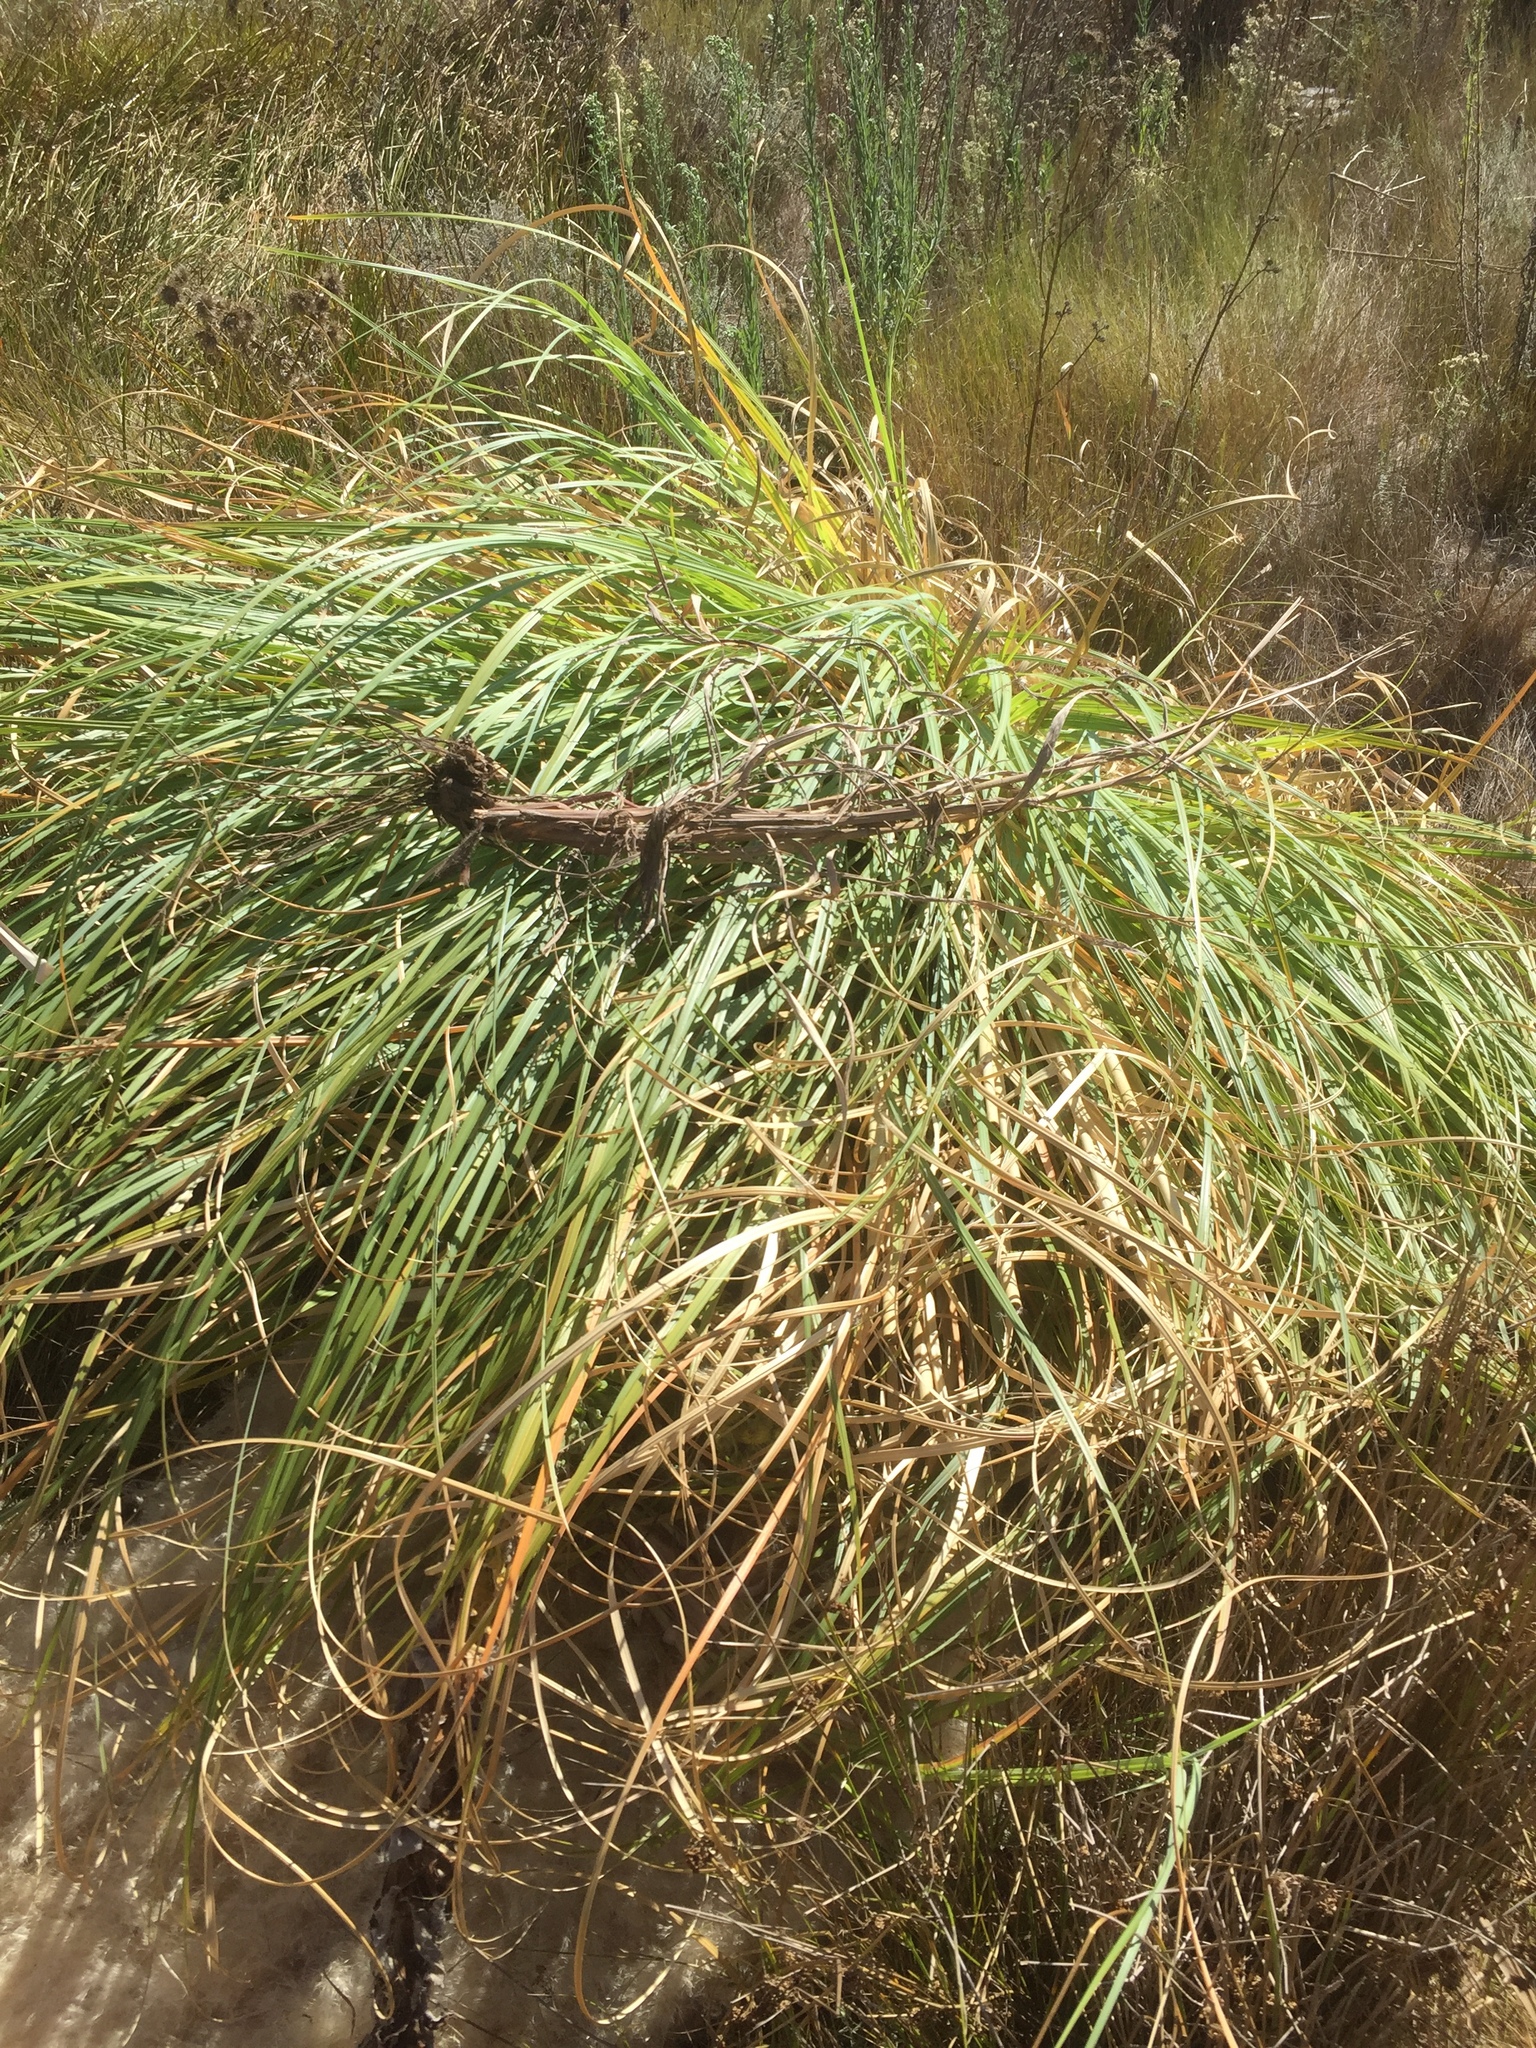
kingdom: Plantae
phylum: Tracheophyta
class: Liliopsida
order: Poales
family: Poaceae
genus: Cortaderia
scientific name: Cortaderia selloana
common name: Uruguayan pampas grass
